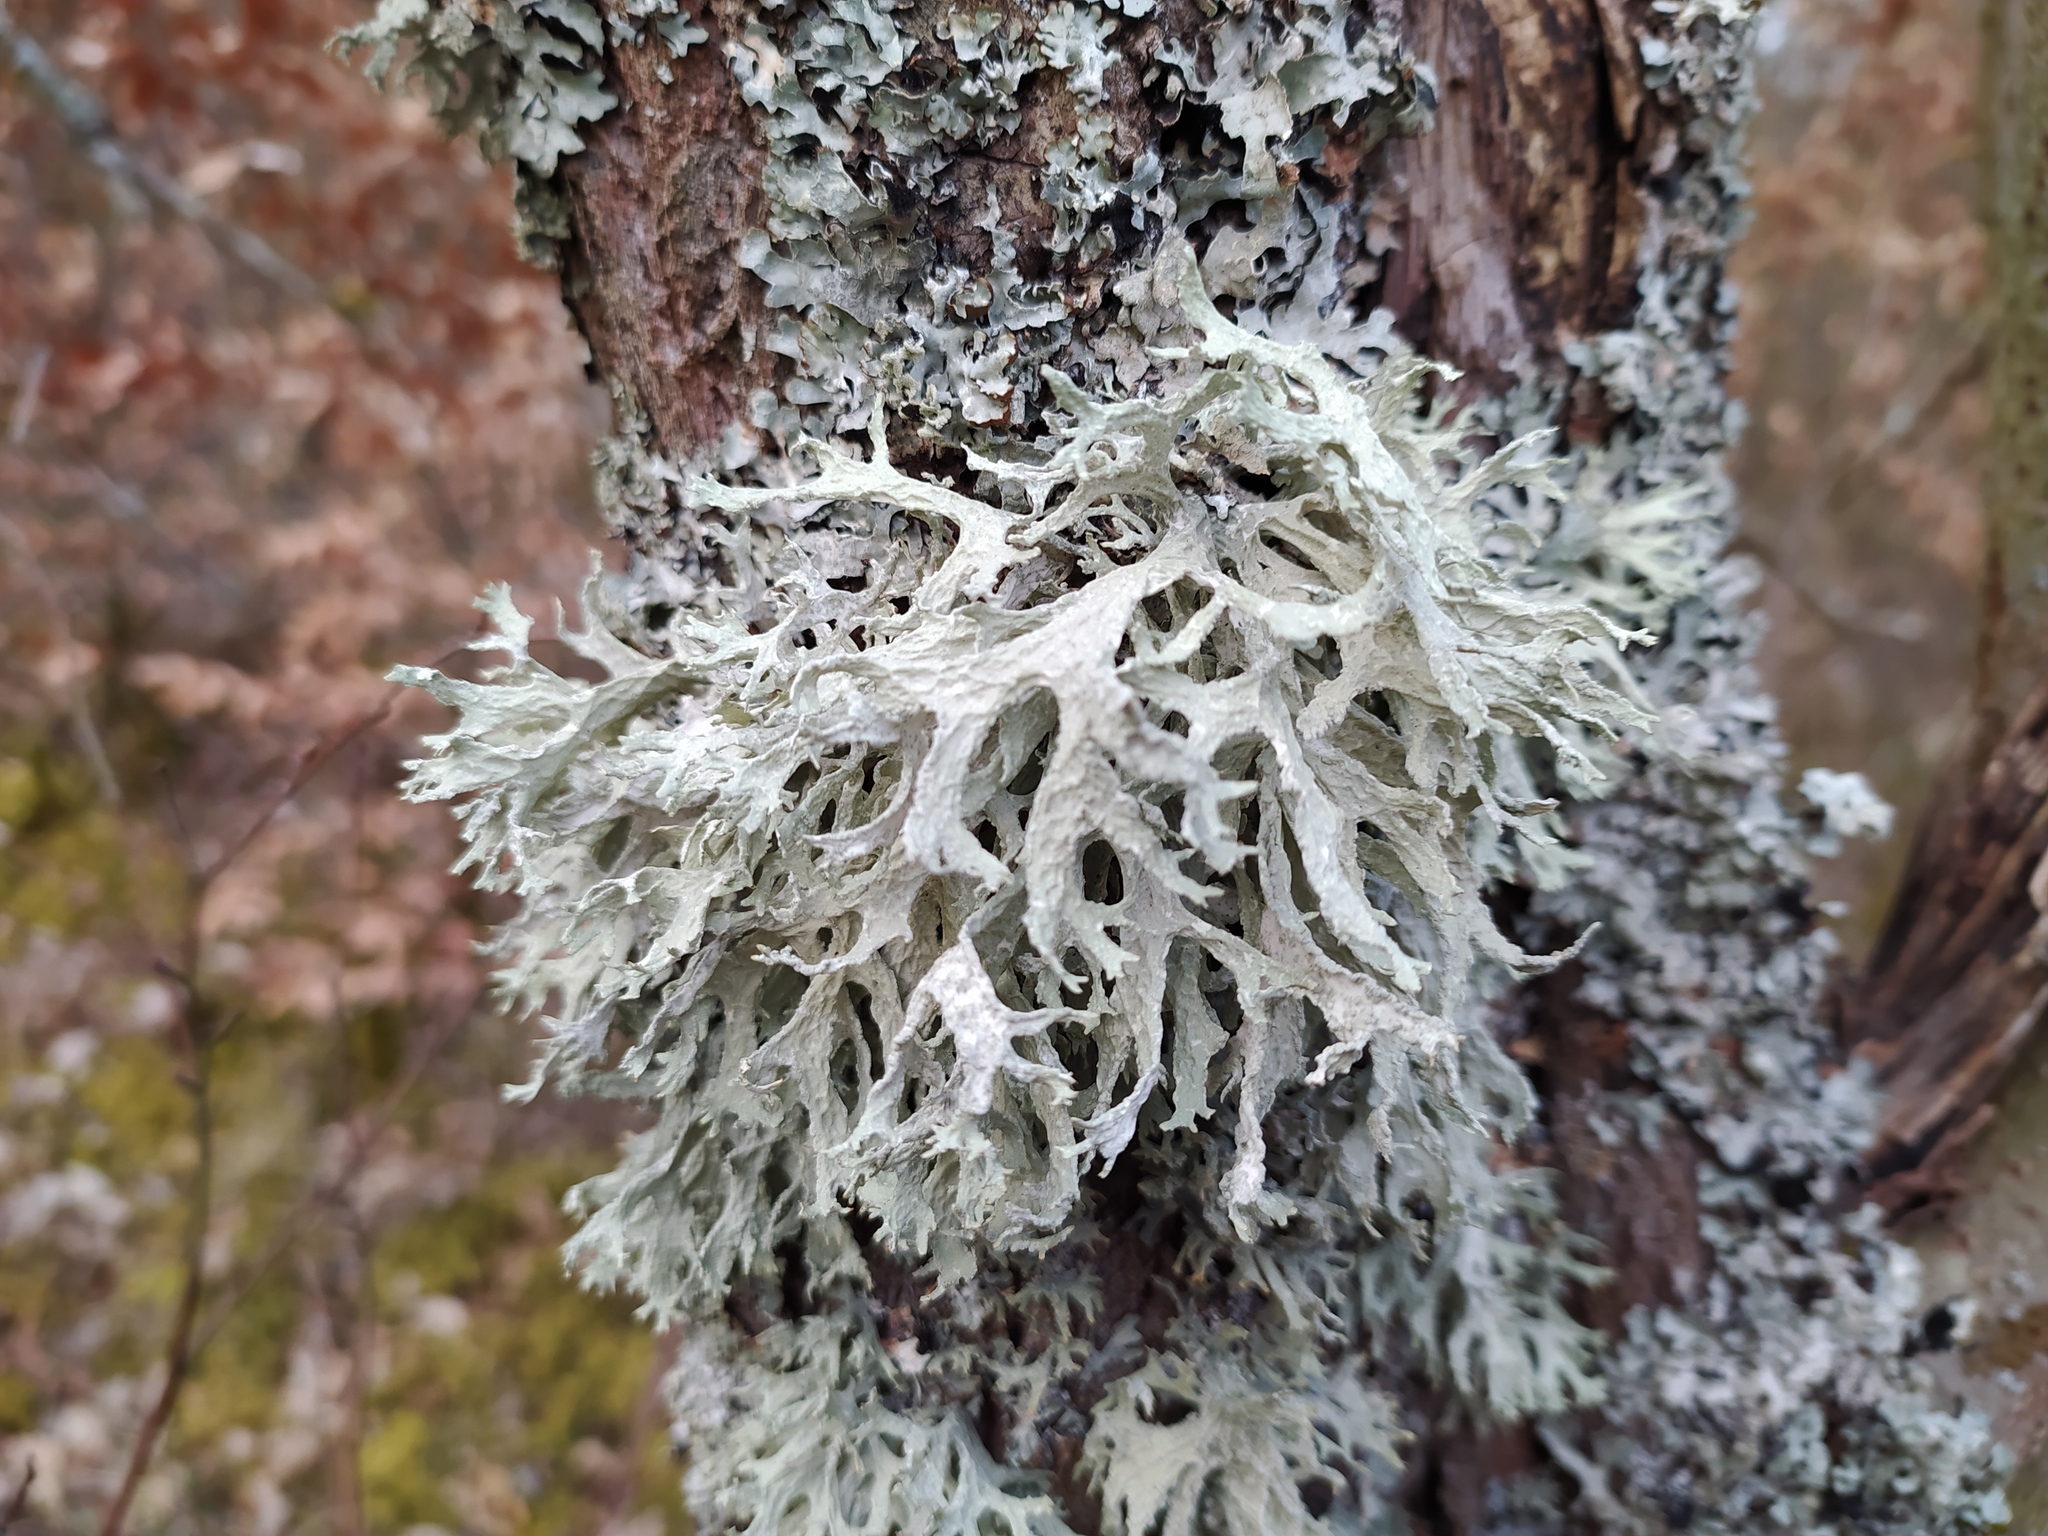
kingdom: Fungi
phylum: Ascomycota
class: Lecanoromycetes
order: Lecanorales
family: Parmeliaceae
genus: Evernia
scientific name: Evernia prunastri
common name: Oak moss
